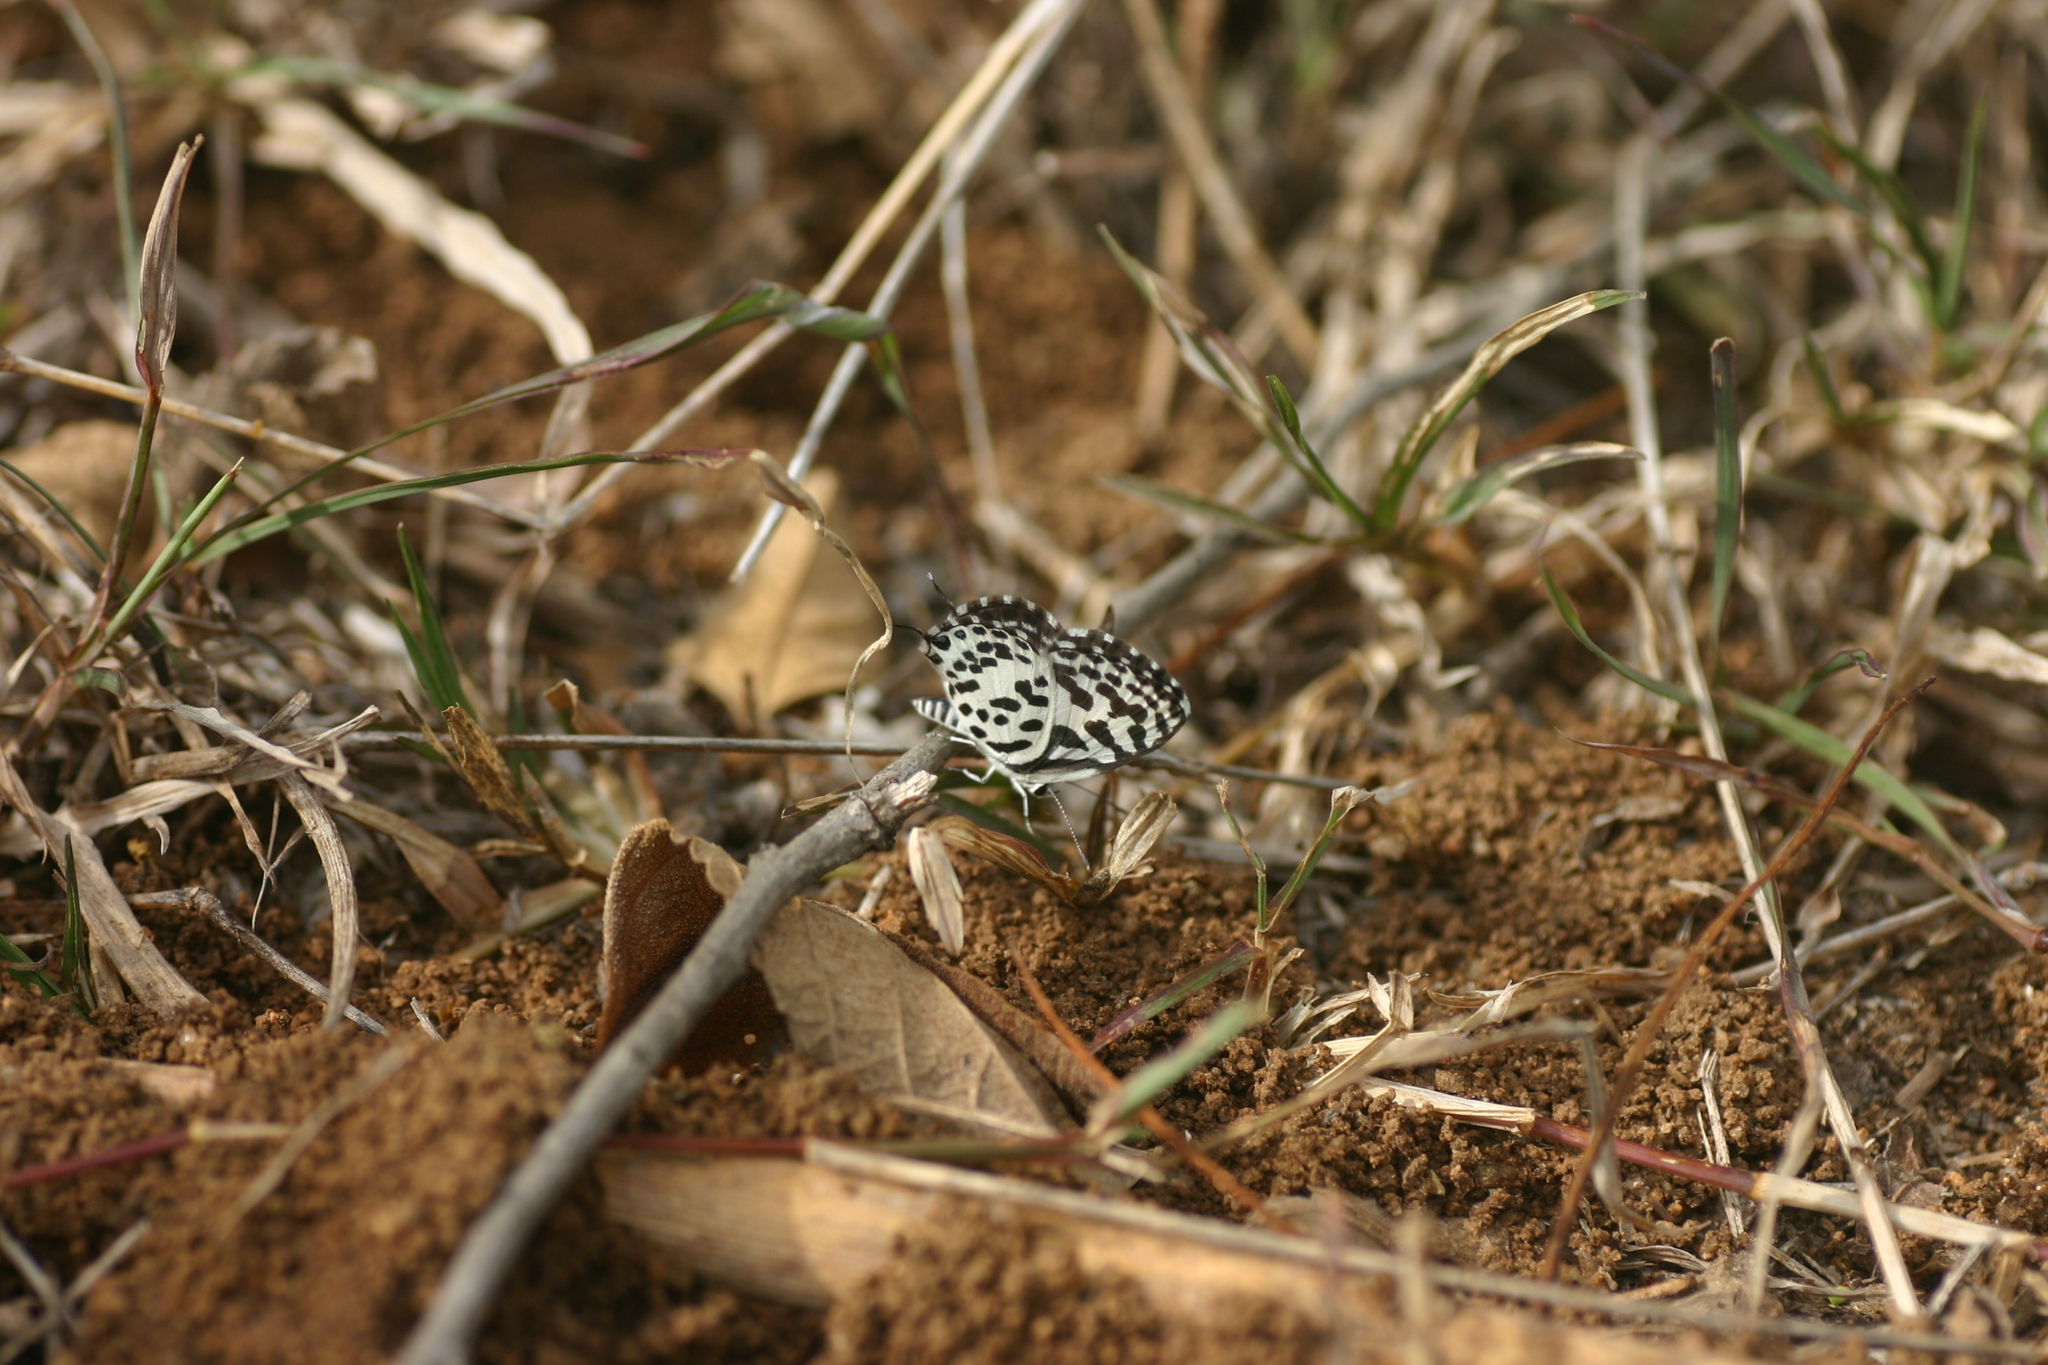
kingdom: Animalia
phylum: Arthropoda
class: Insecta
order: Lepidoptera
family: Lycaenidae
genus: Castalius
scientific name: Castalius rosimon
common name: Common pierrot
